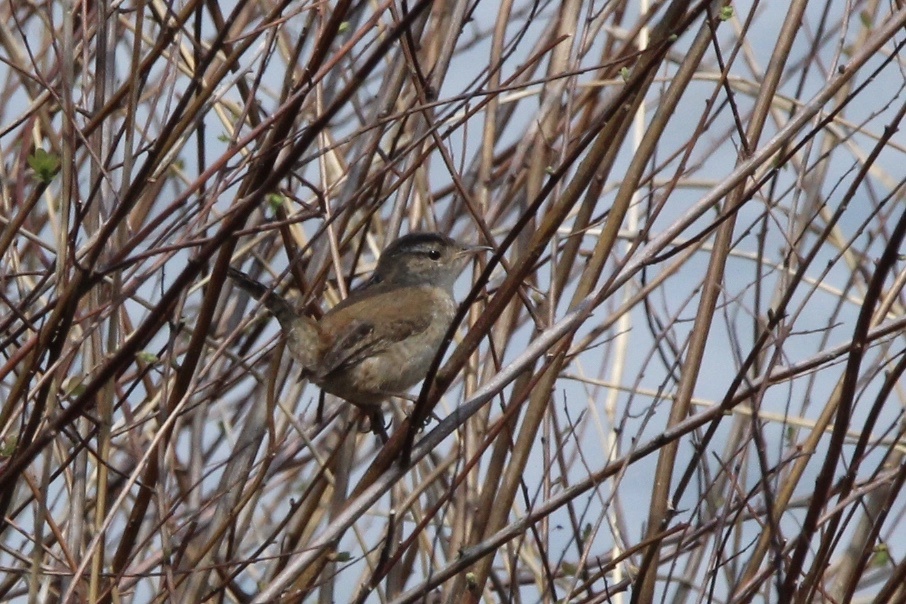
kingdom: Animalia
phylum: Chordata
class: Aves
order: Passeriformes
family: Troglodytidae
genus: Cistothorus
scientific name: Cistothorus palustris
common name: Marsh wren
